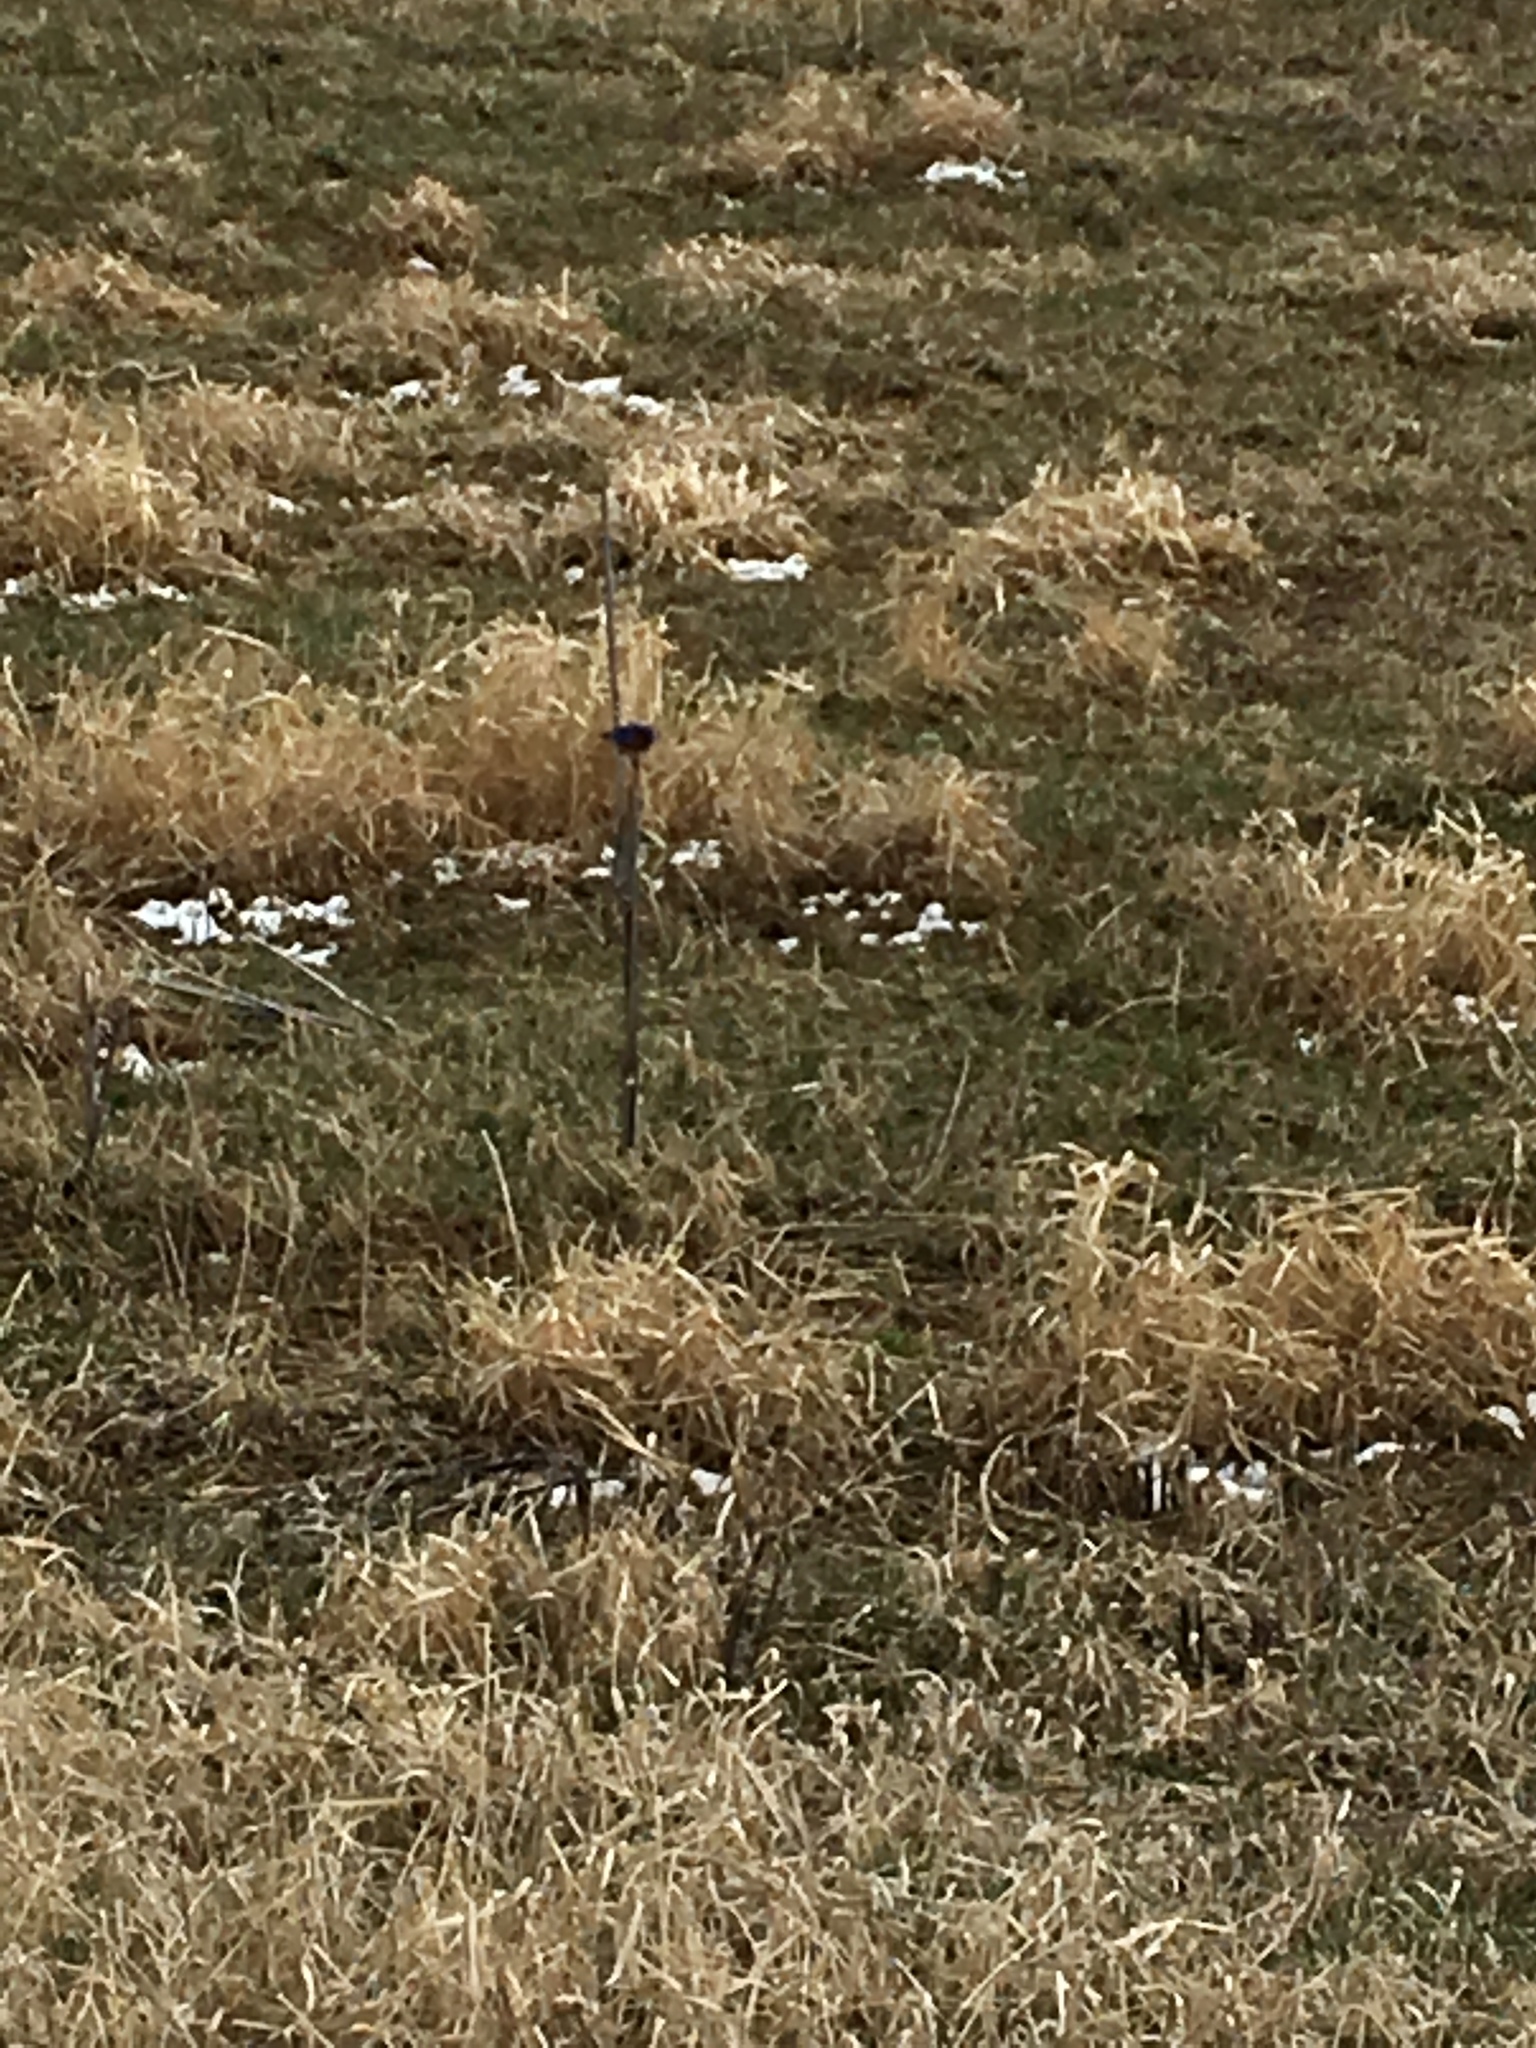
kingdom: Animalia
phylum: Chordata
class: Aves
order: Passeriformes
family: Turdidae
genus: Sialia
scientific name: Sialia sialis
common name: Eastern bluebird
